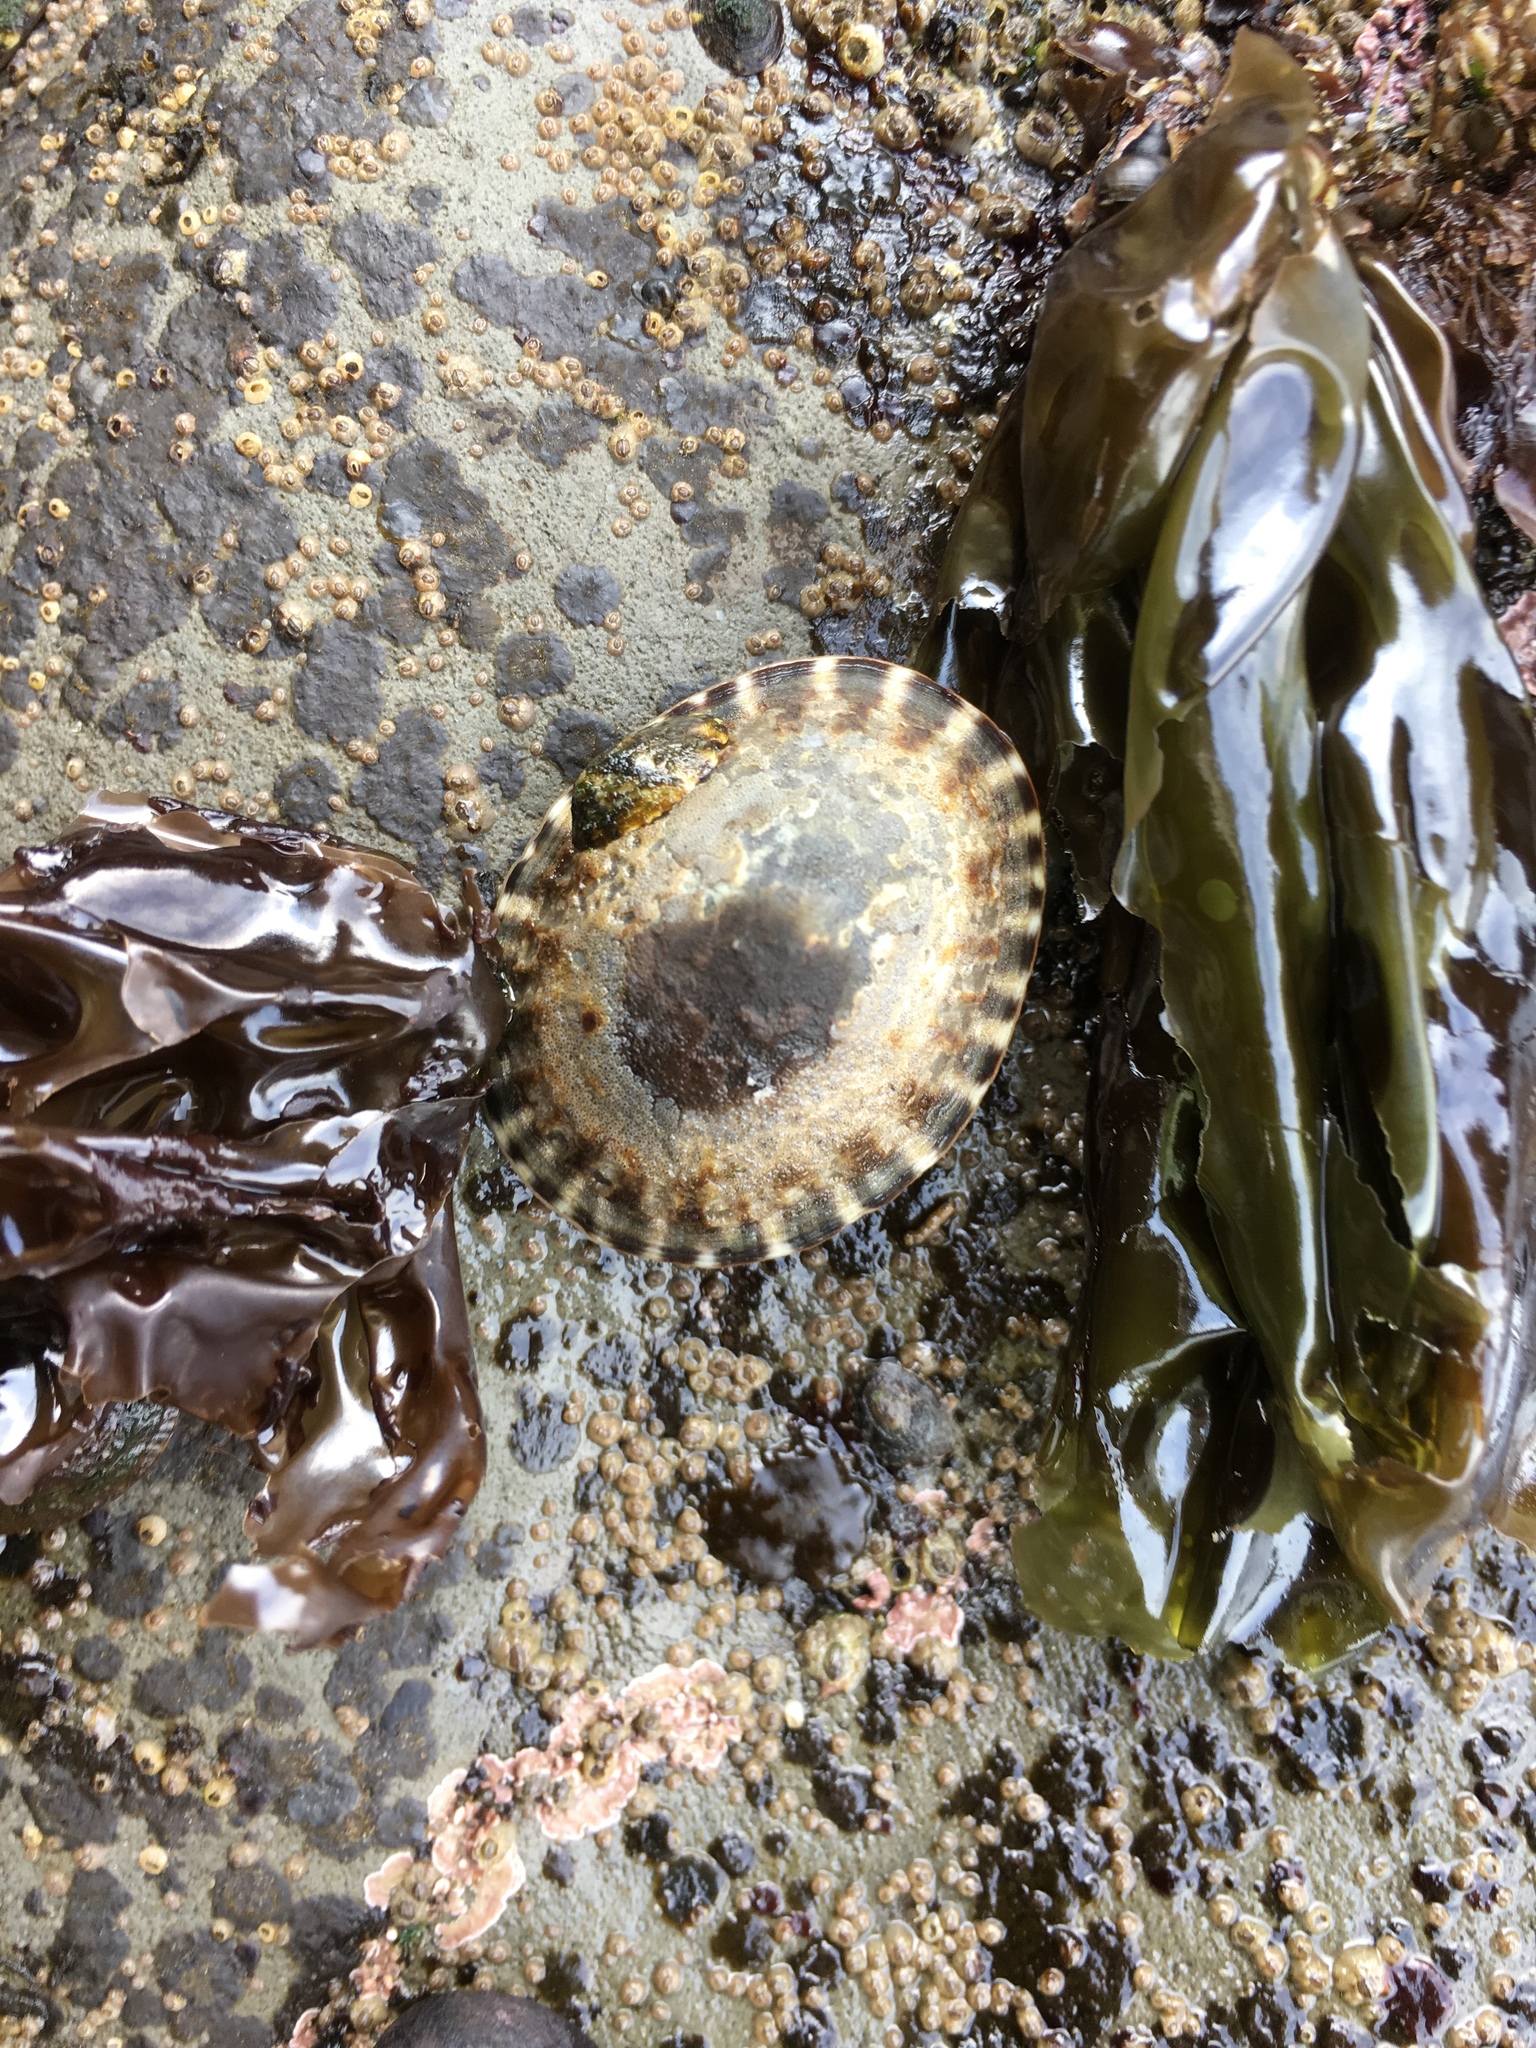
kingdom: Animalia
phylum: Mollusca
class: Gastropoda
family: Lottiidae
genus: Lottia
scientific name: Lottia gigantea
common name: Owl limpet
